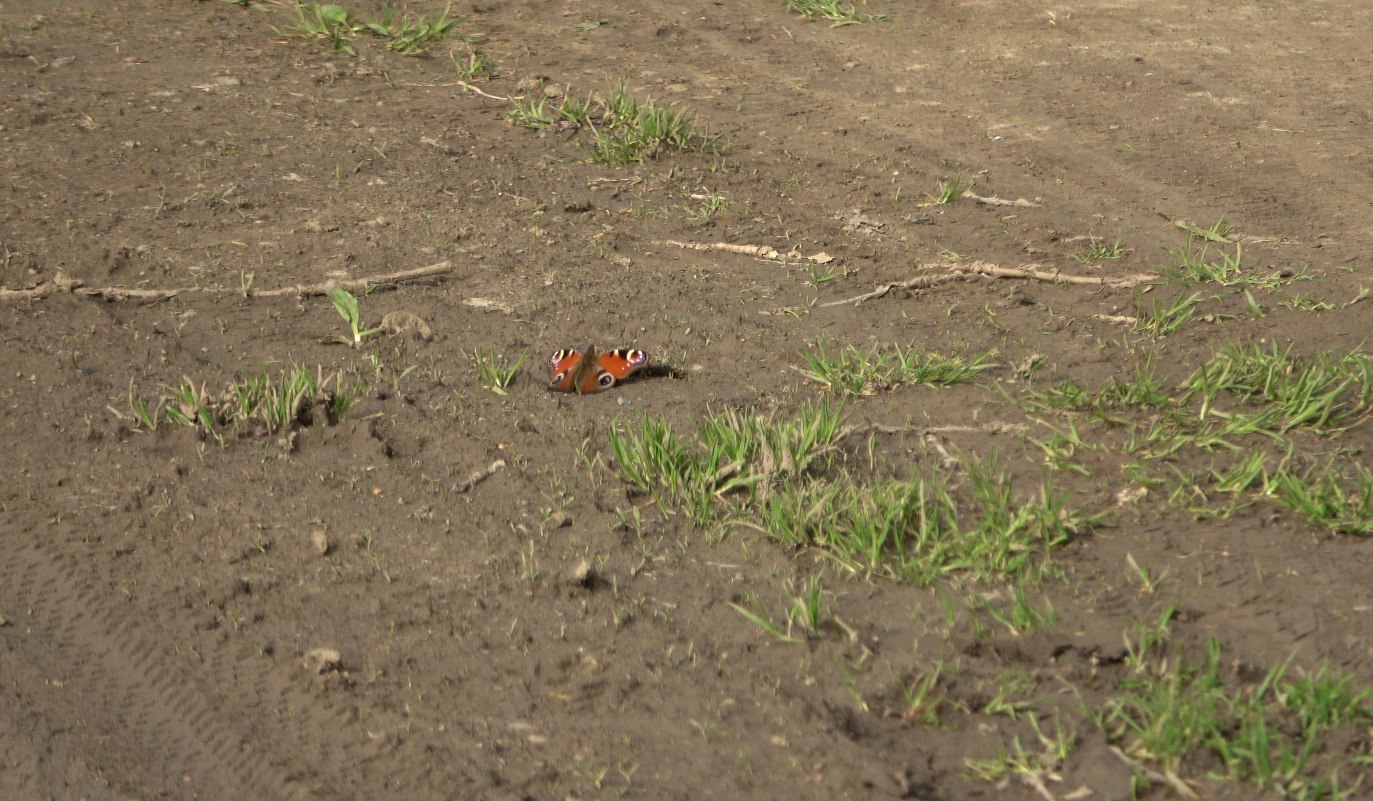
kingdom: Animalia
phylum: Arthropoda
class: Insecta
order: Lepidoptera
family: Nymphalidae
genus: Aglais
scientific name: Aglais io
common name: Peacock
